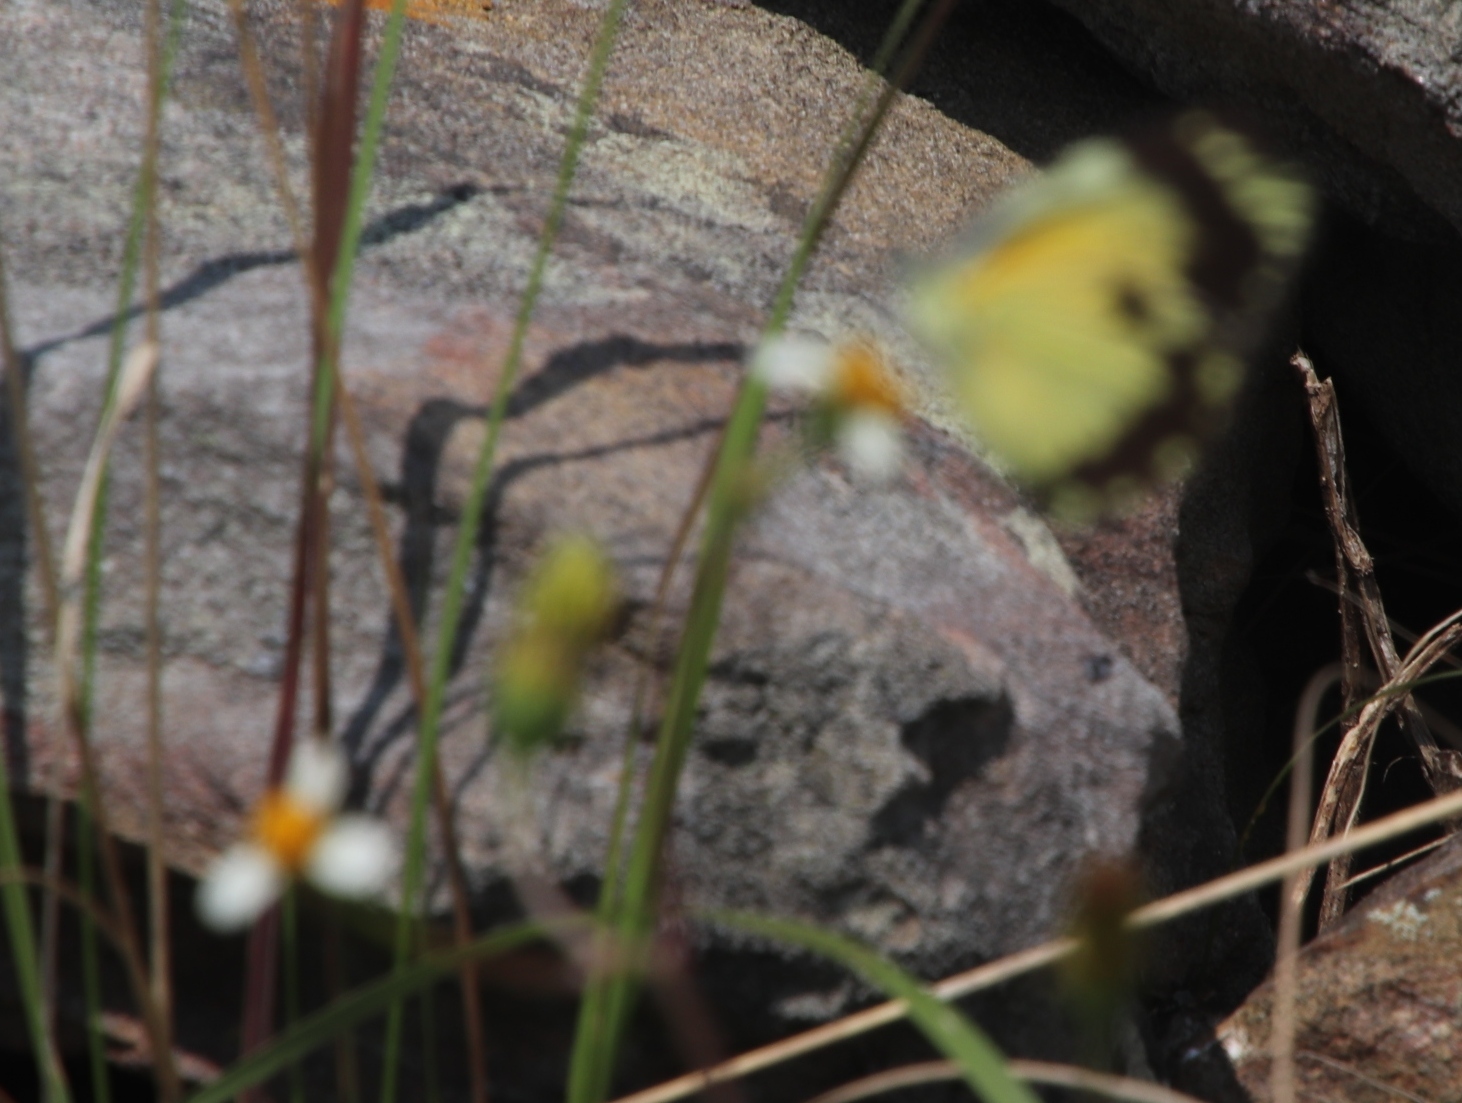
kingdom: Plantae
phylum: Tracheophyta
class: Magnoliopsida
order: Asterales
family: Asteraceae
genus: Bidens
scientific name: Bidens pilosa
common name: Black-jack
